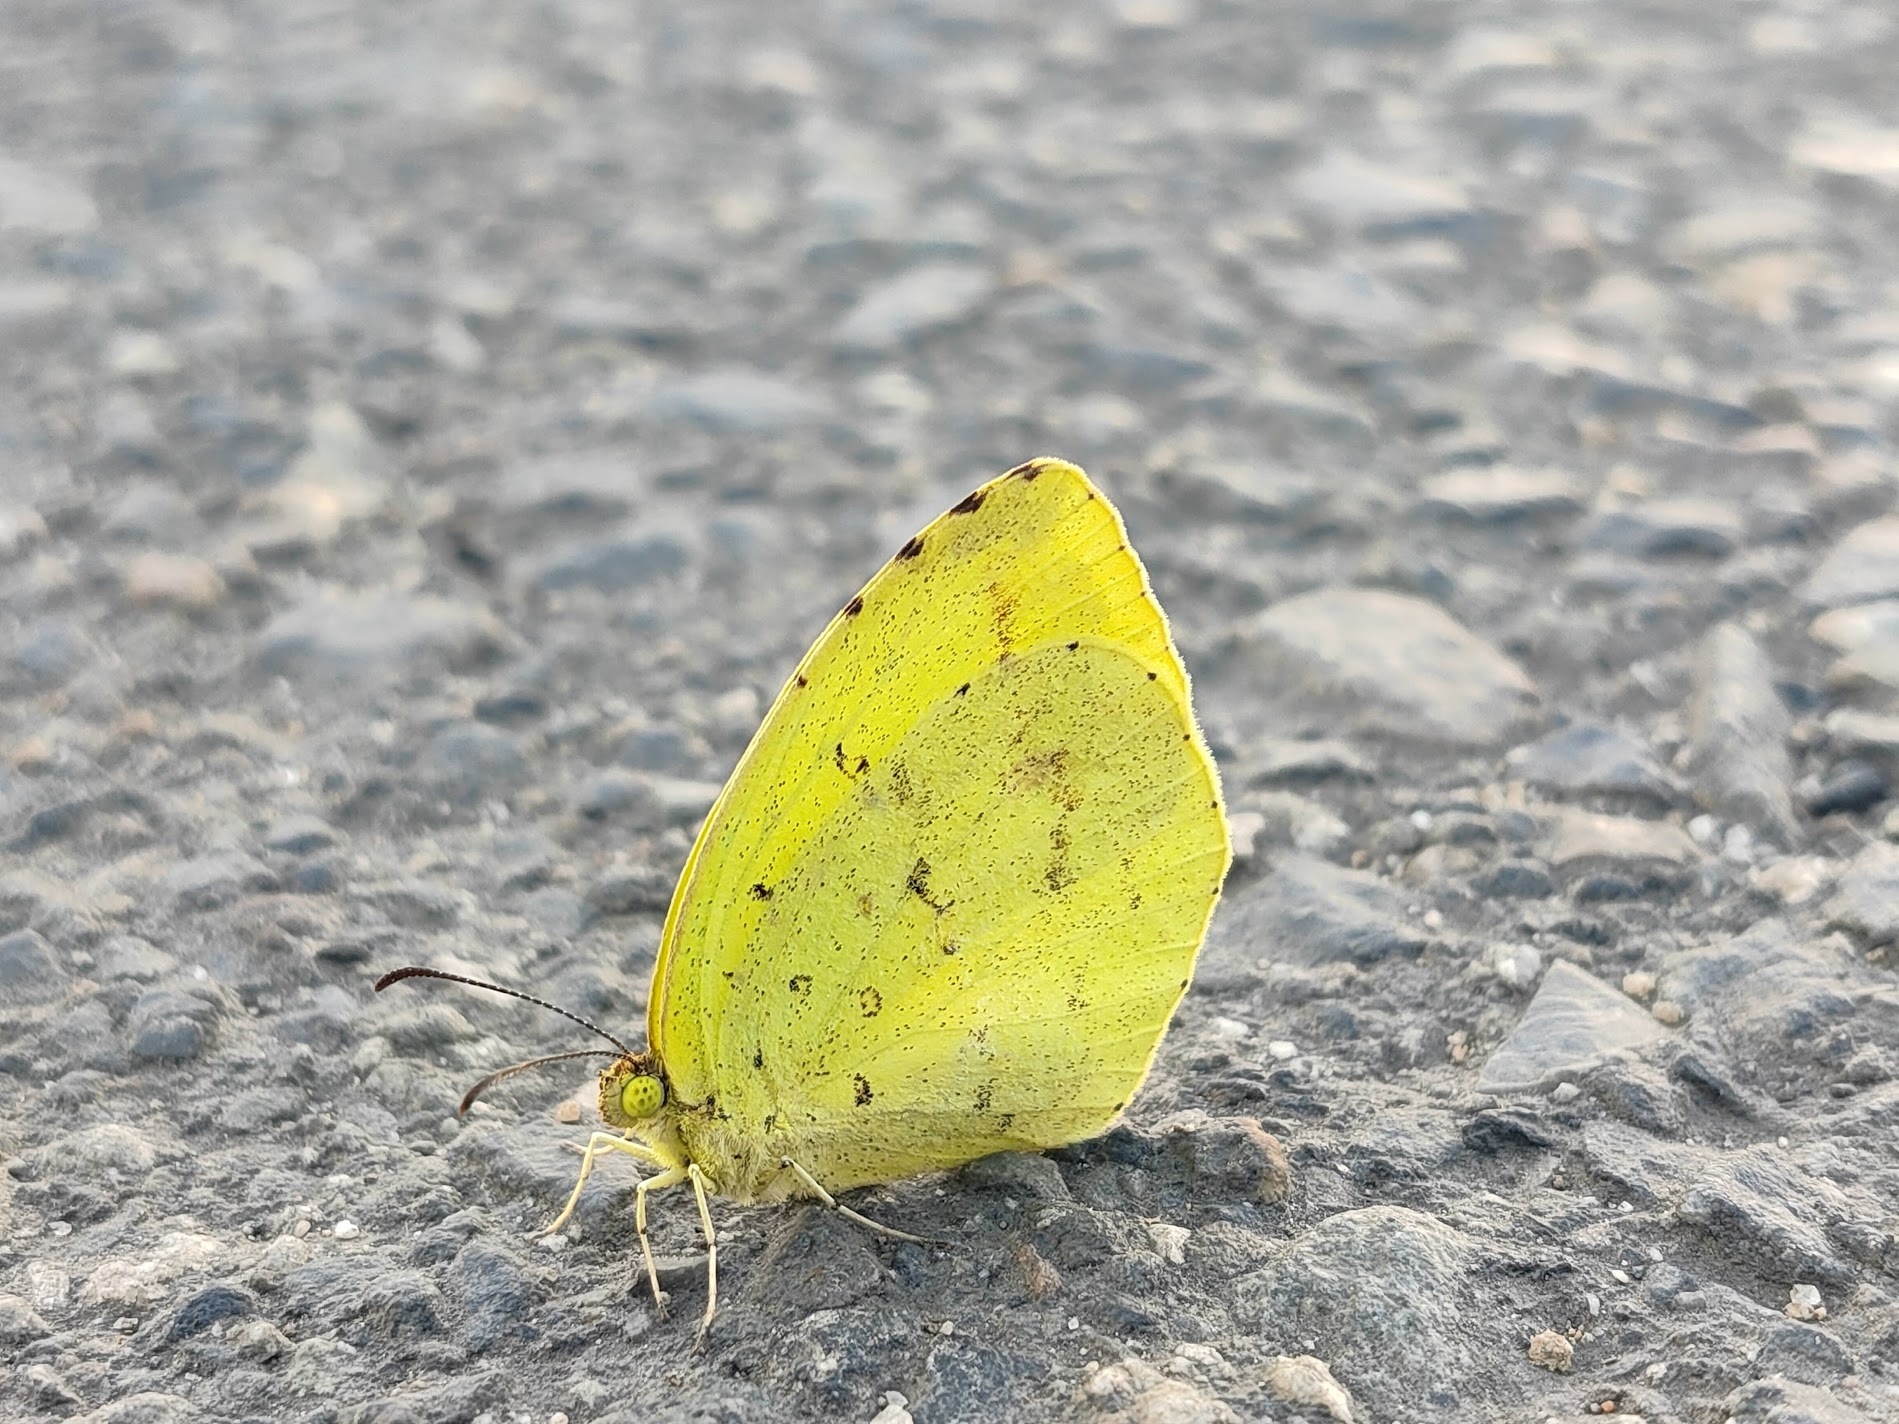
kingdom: Animalia
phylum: Arthropoda
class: Insecta
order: Lepidoptera
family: Pieridae
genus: Eurema
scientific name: Eurema mandarina
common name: Japanese common grass yellow
